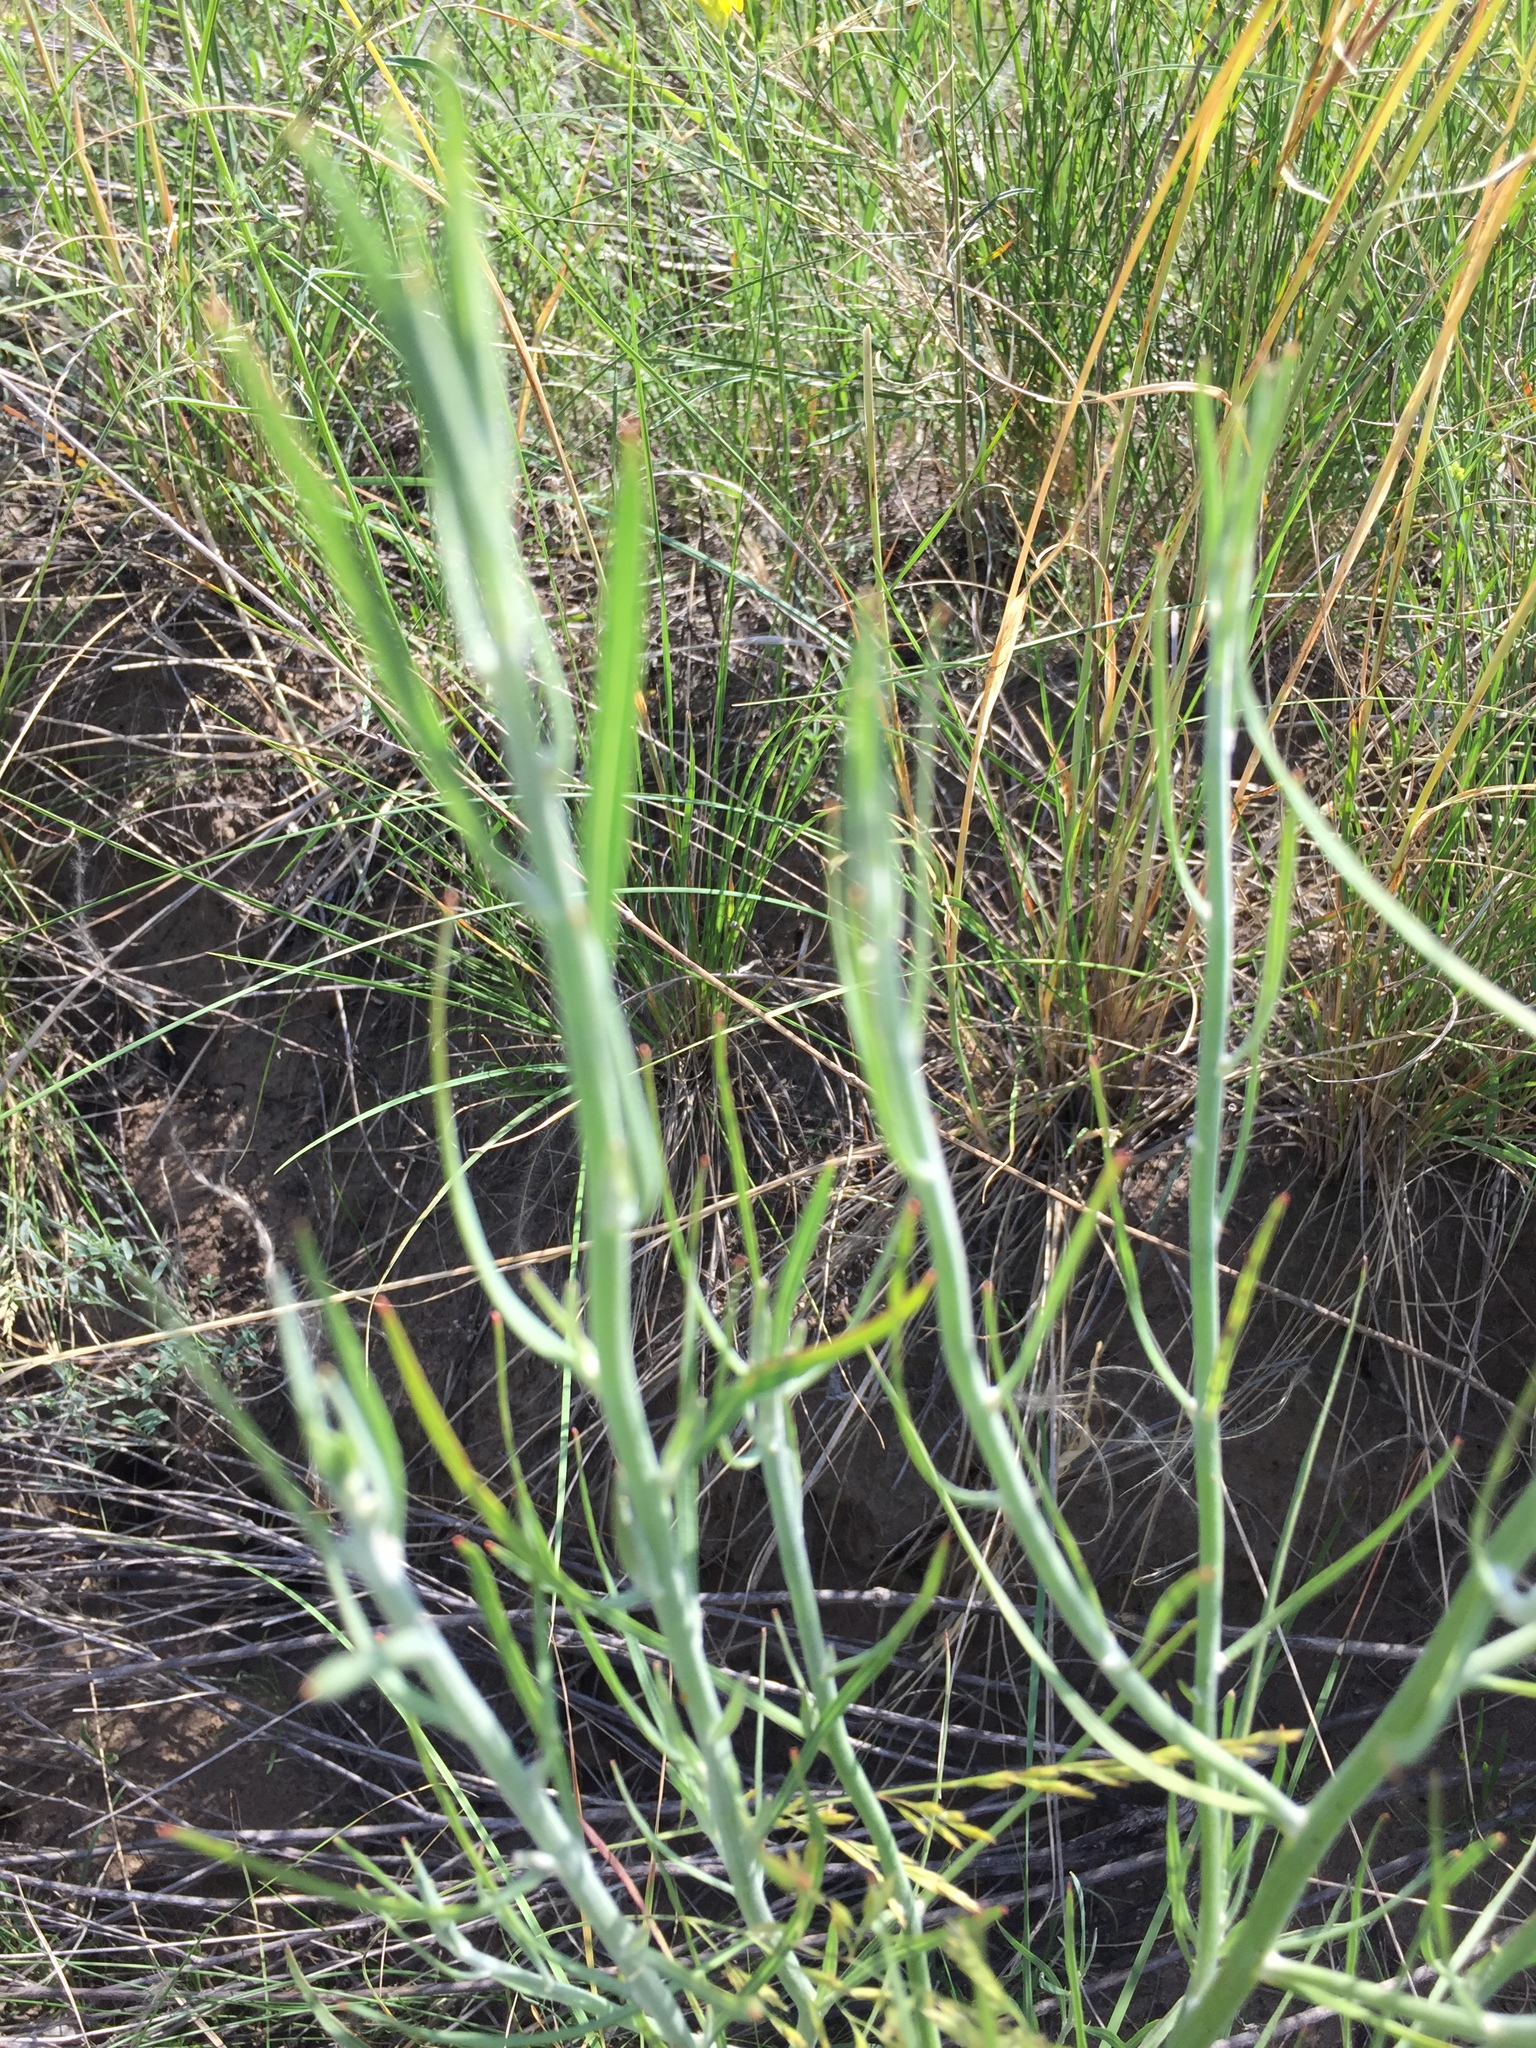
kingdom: Plantae
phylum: Tracheophyta
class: Magnoliopsida
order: Asterales
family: Asteraceae
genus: Chondrilla
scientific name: Chondrilla juncea
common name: Skeleton weed
